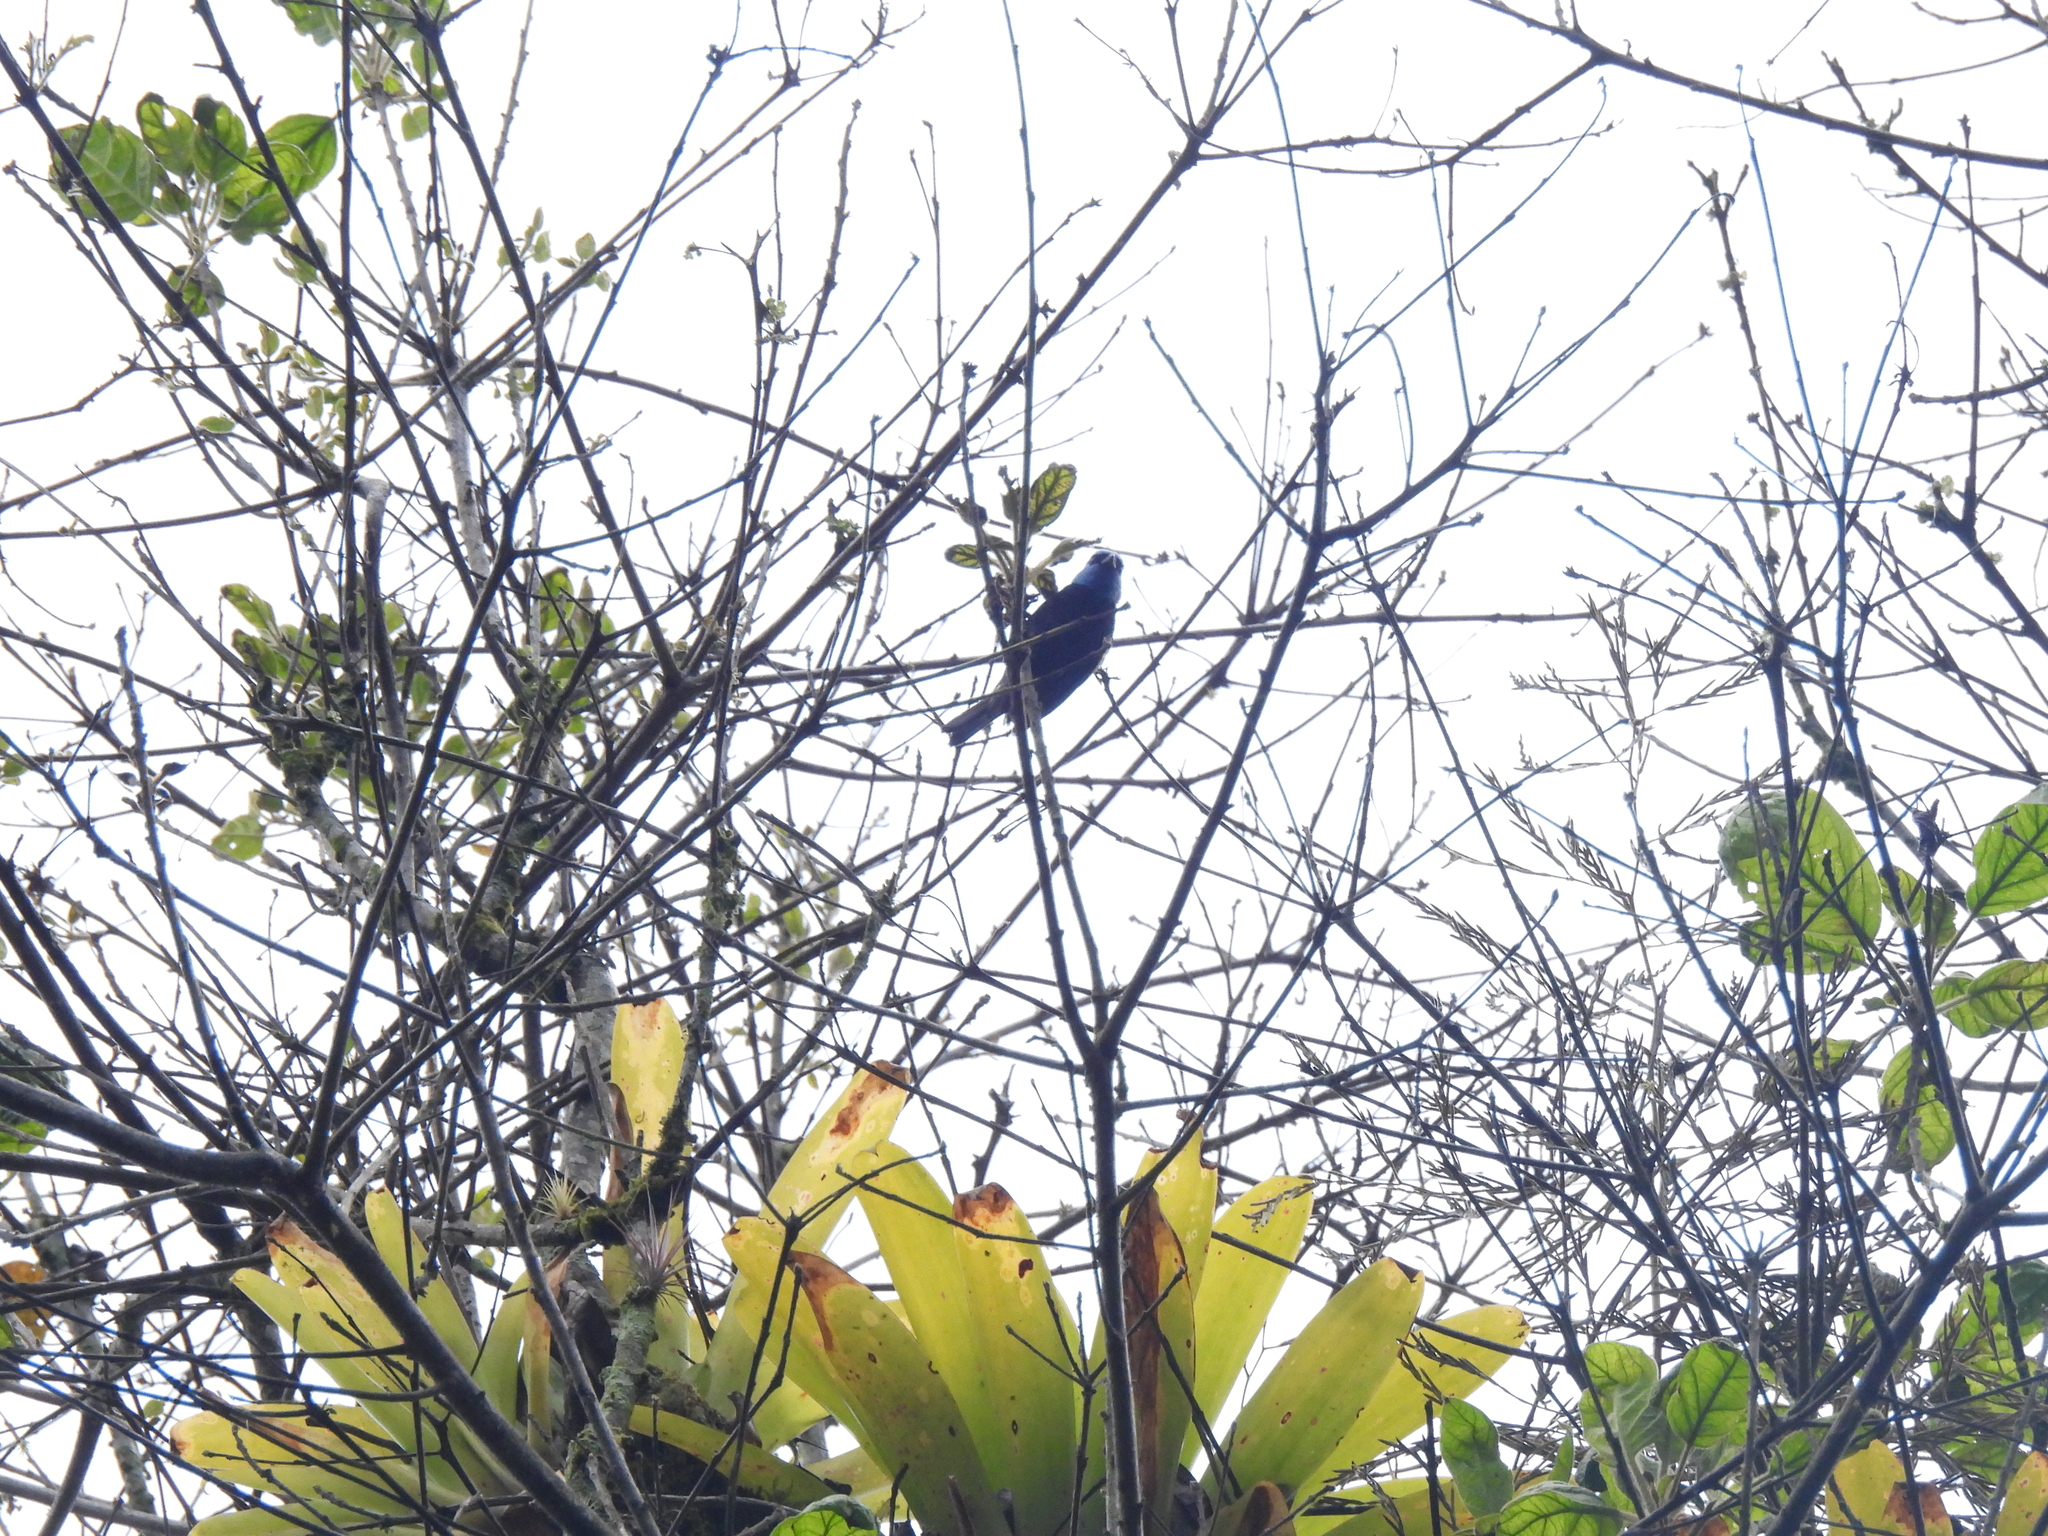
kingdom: Animalia
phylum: Chordata
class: Aves
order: Passeriformes
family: Thraupidae
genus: Stilpnia
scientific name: Stilpnia cyanicollis
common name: Blue-necked tanager
